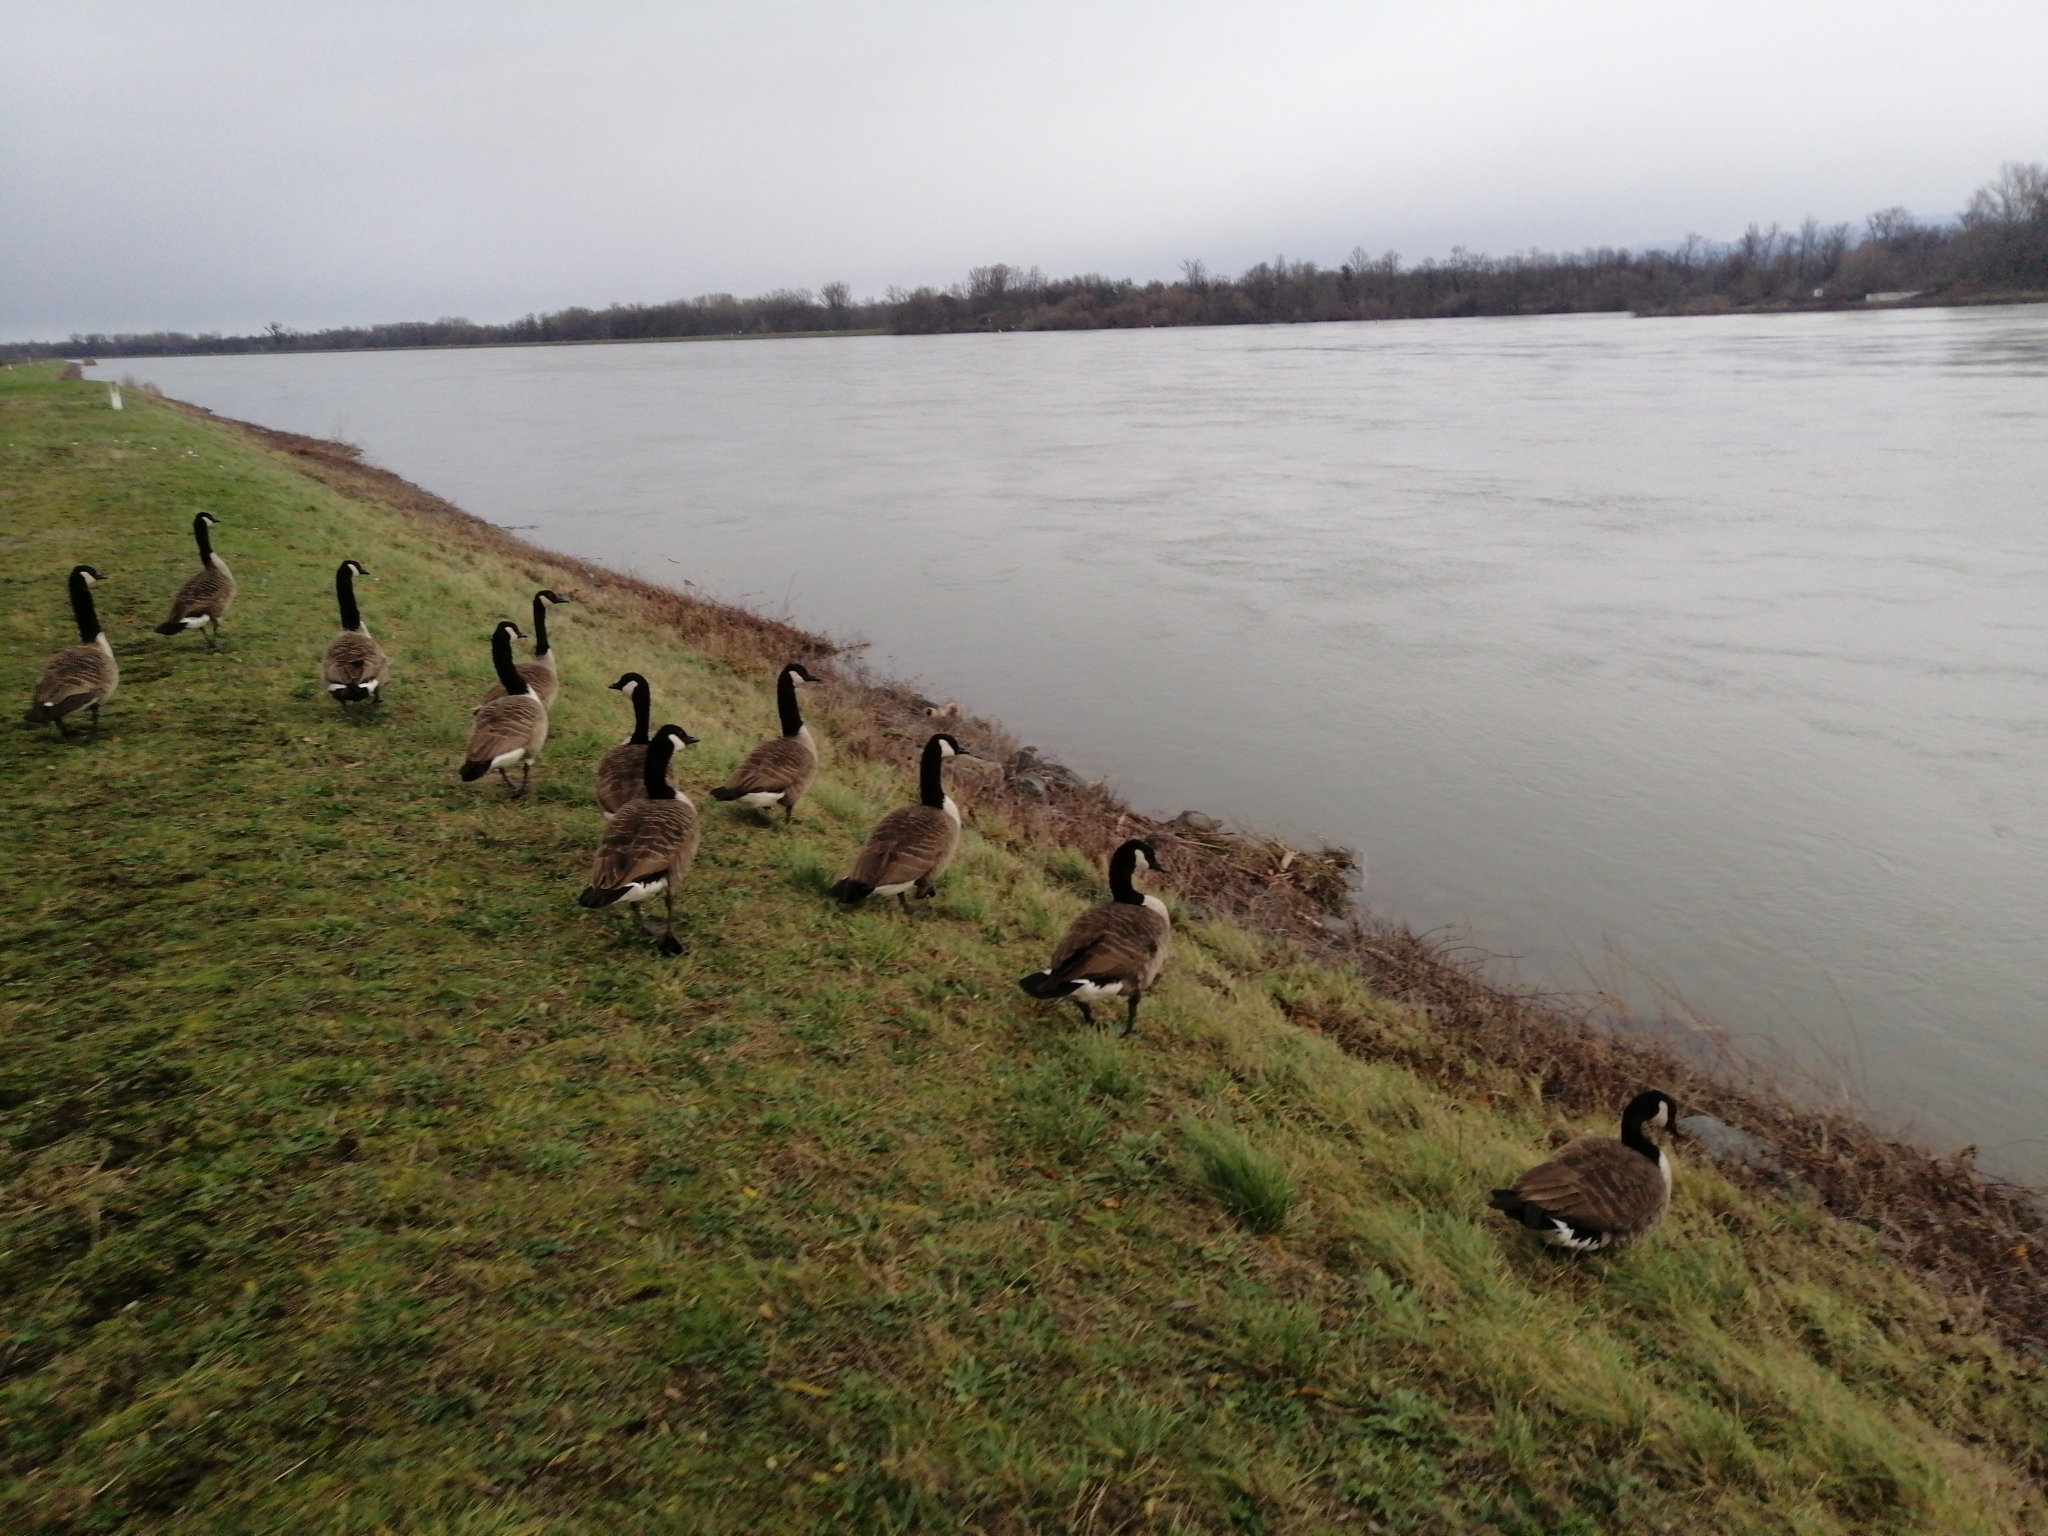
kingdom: Animalia
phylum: Chordata
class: Aves
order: Anseriformes
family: Anatidae
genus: Branta
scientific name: Branta canadensis
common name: Canada goose
